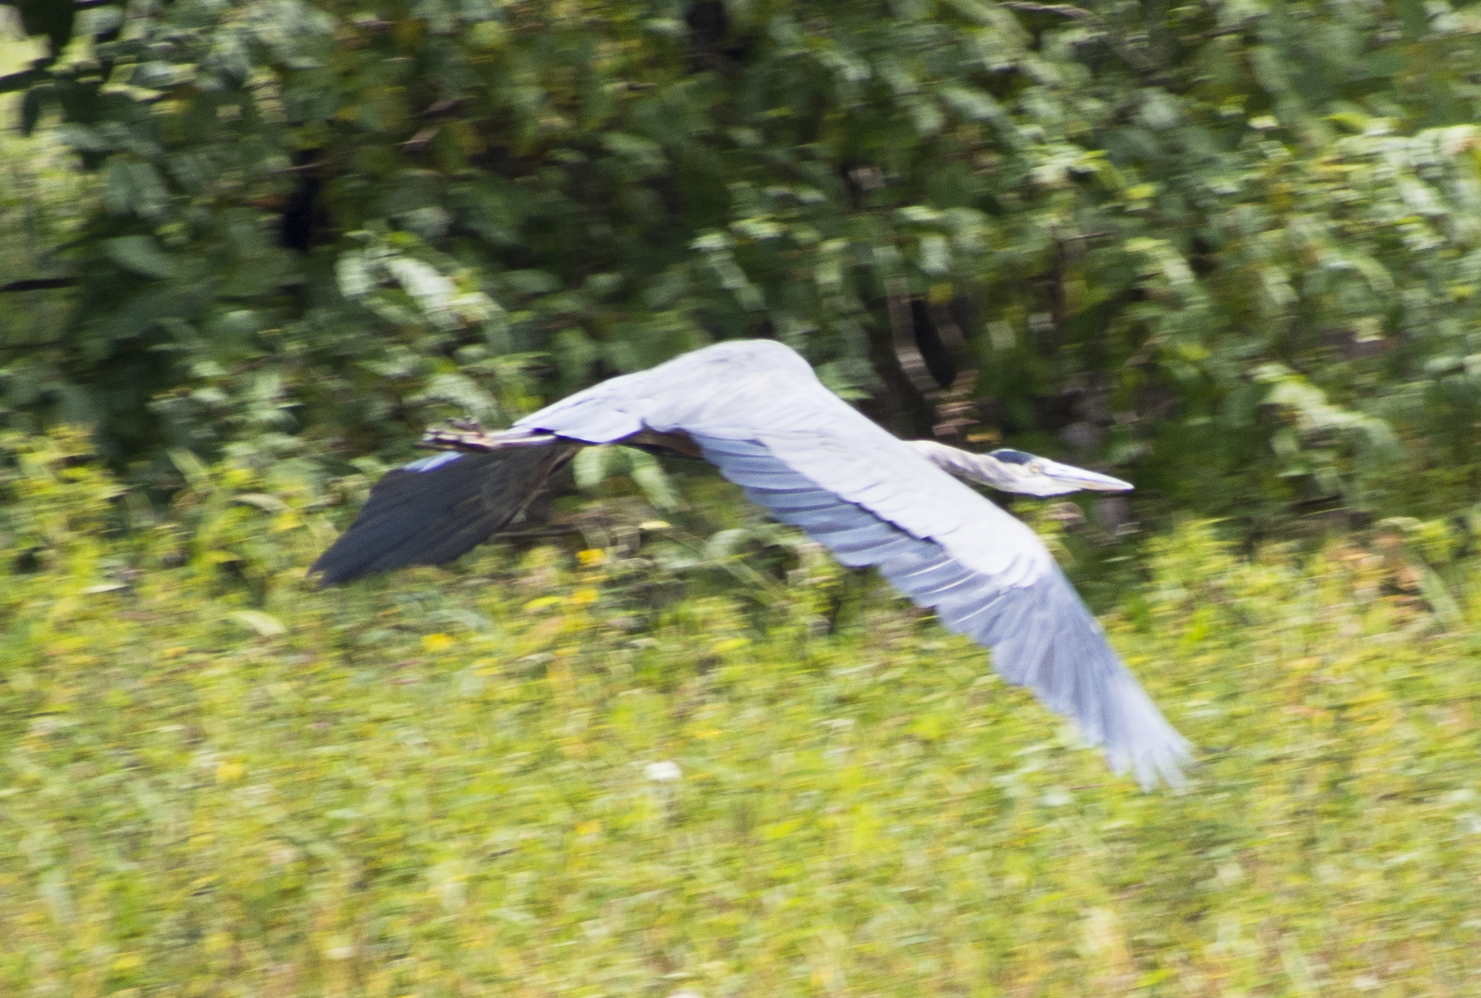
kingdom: Animalia
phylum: Chordata
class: Aves
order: Pelecaniformes
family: Ardeidae
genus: Ardea
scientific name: Ardea herodias
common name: Great blue heron
